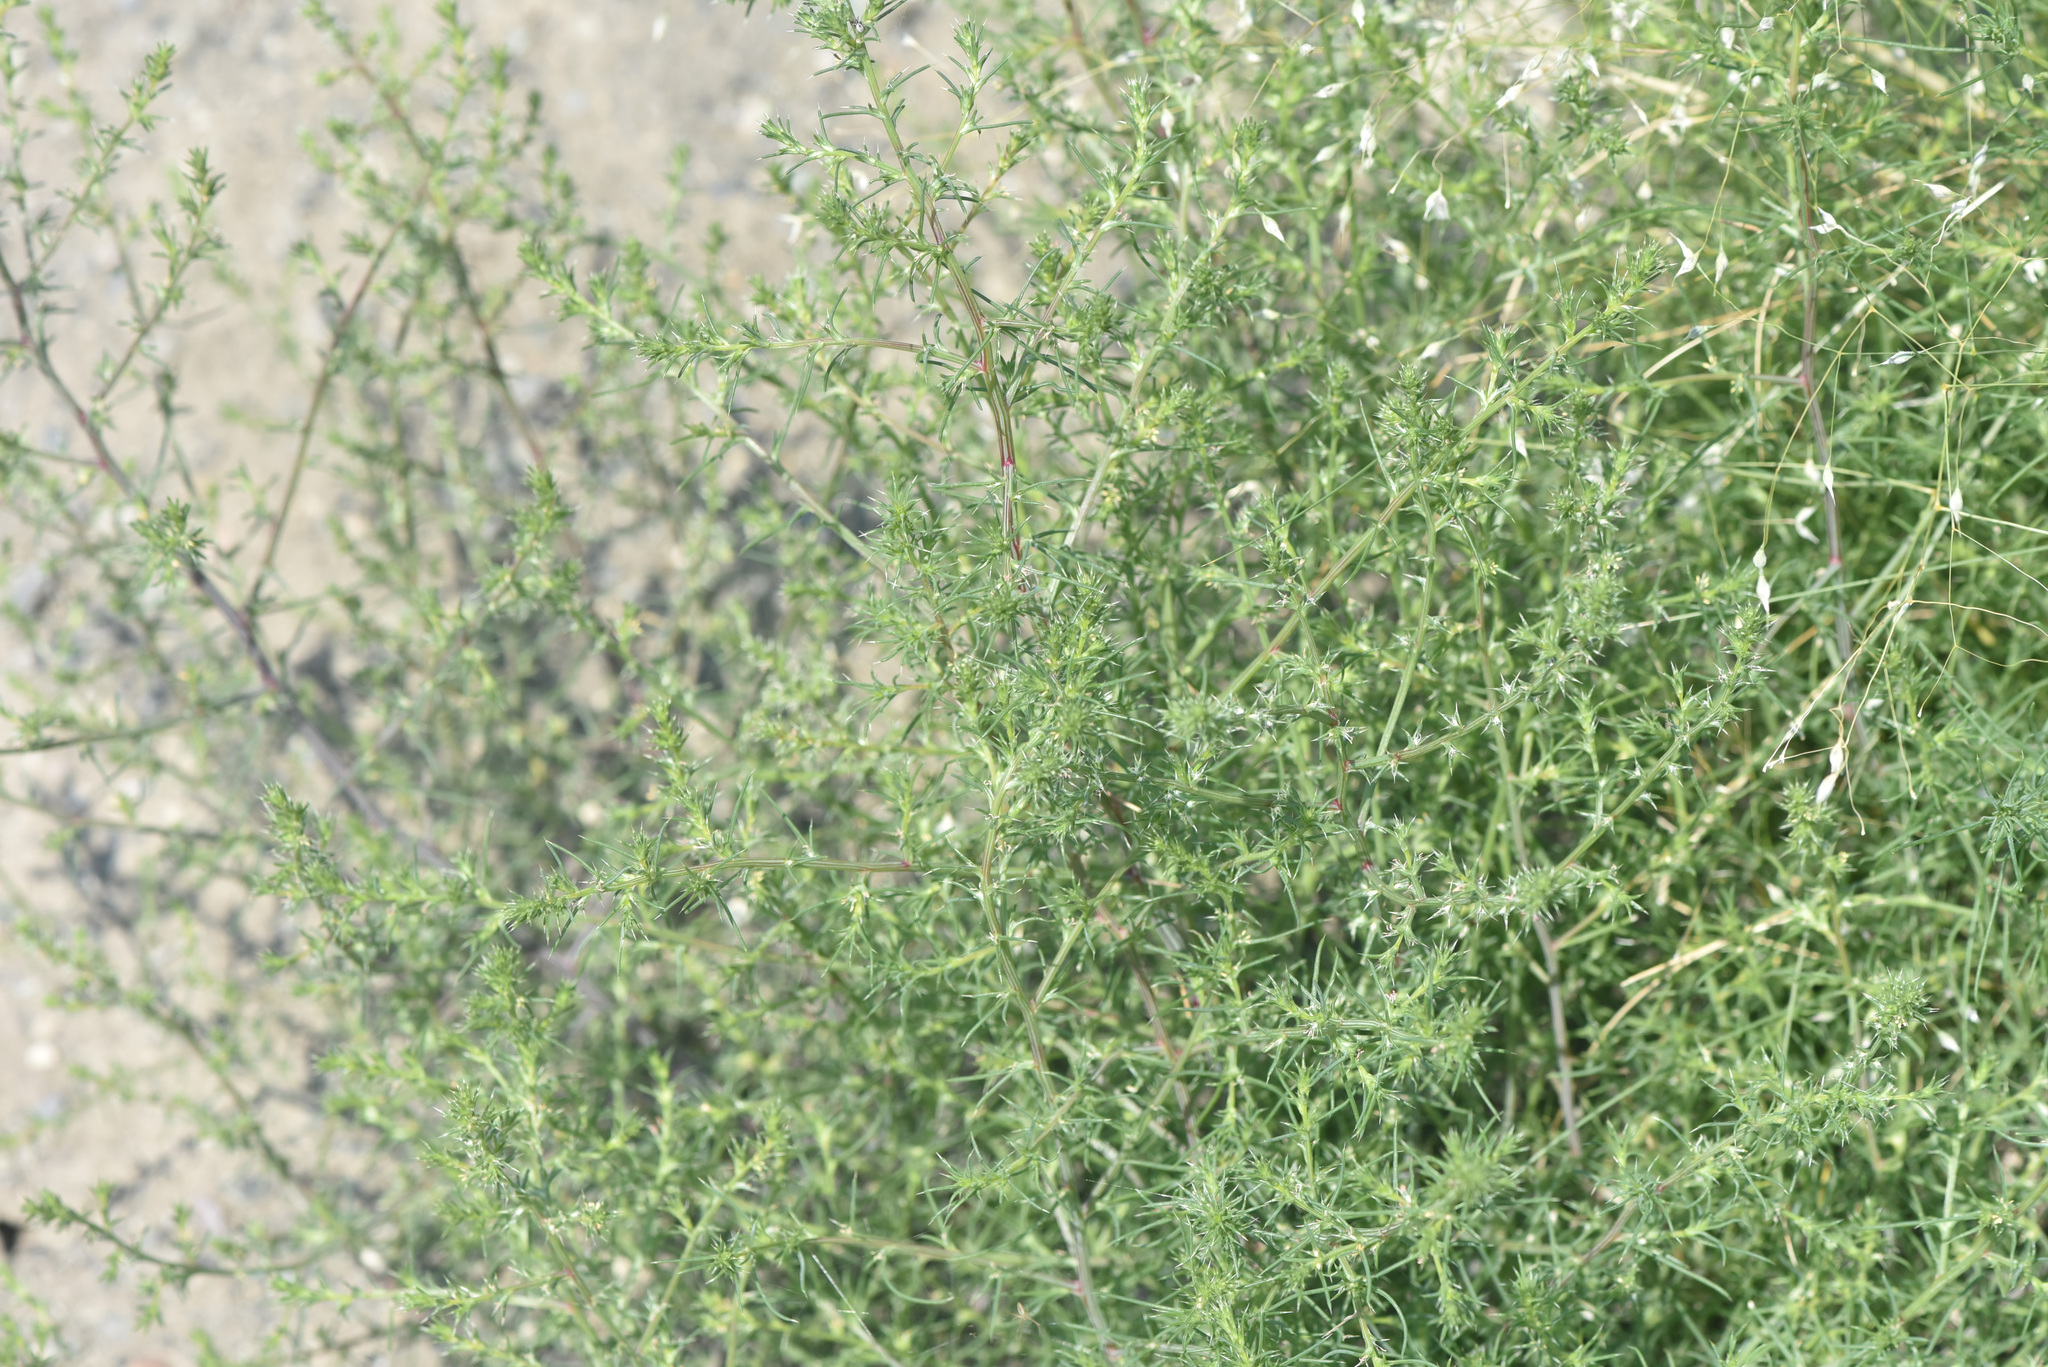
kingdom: Plantae
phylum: Tracheophyta
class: Magnoliopsida
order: Caryophyllales
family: Amaranthaceae
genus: Salsola
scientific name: Salsola tragus
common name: Prickly russian thistle
